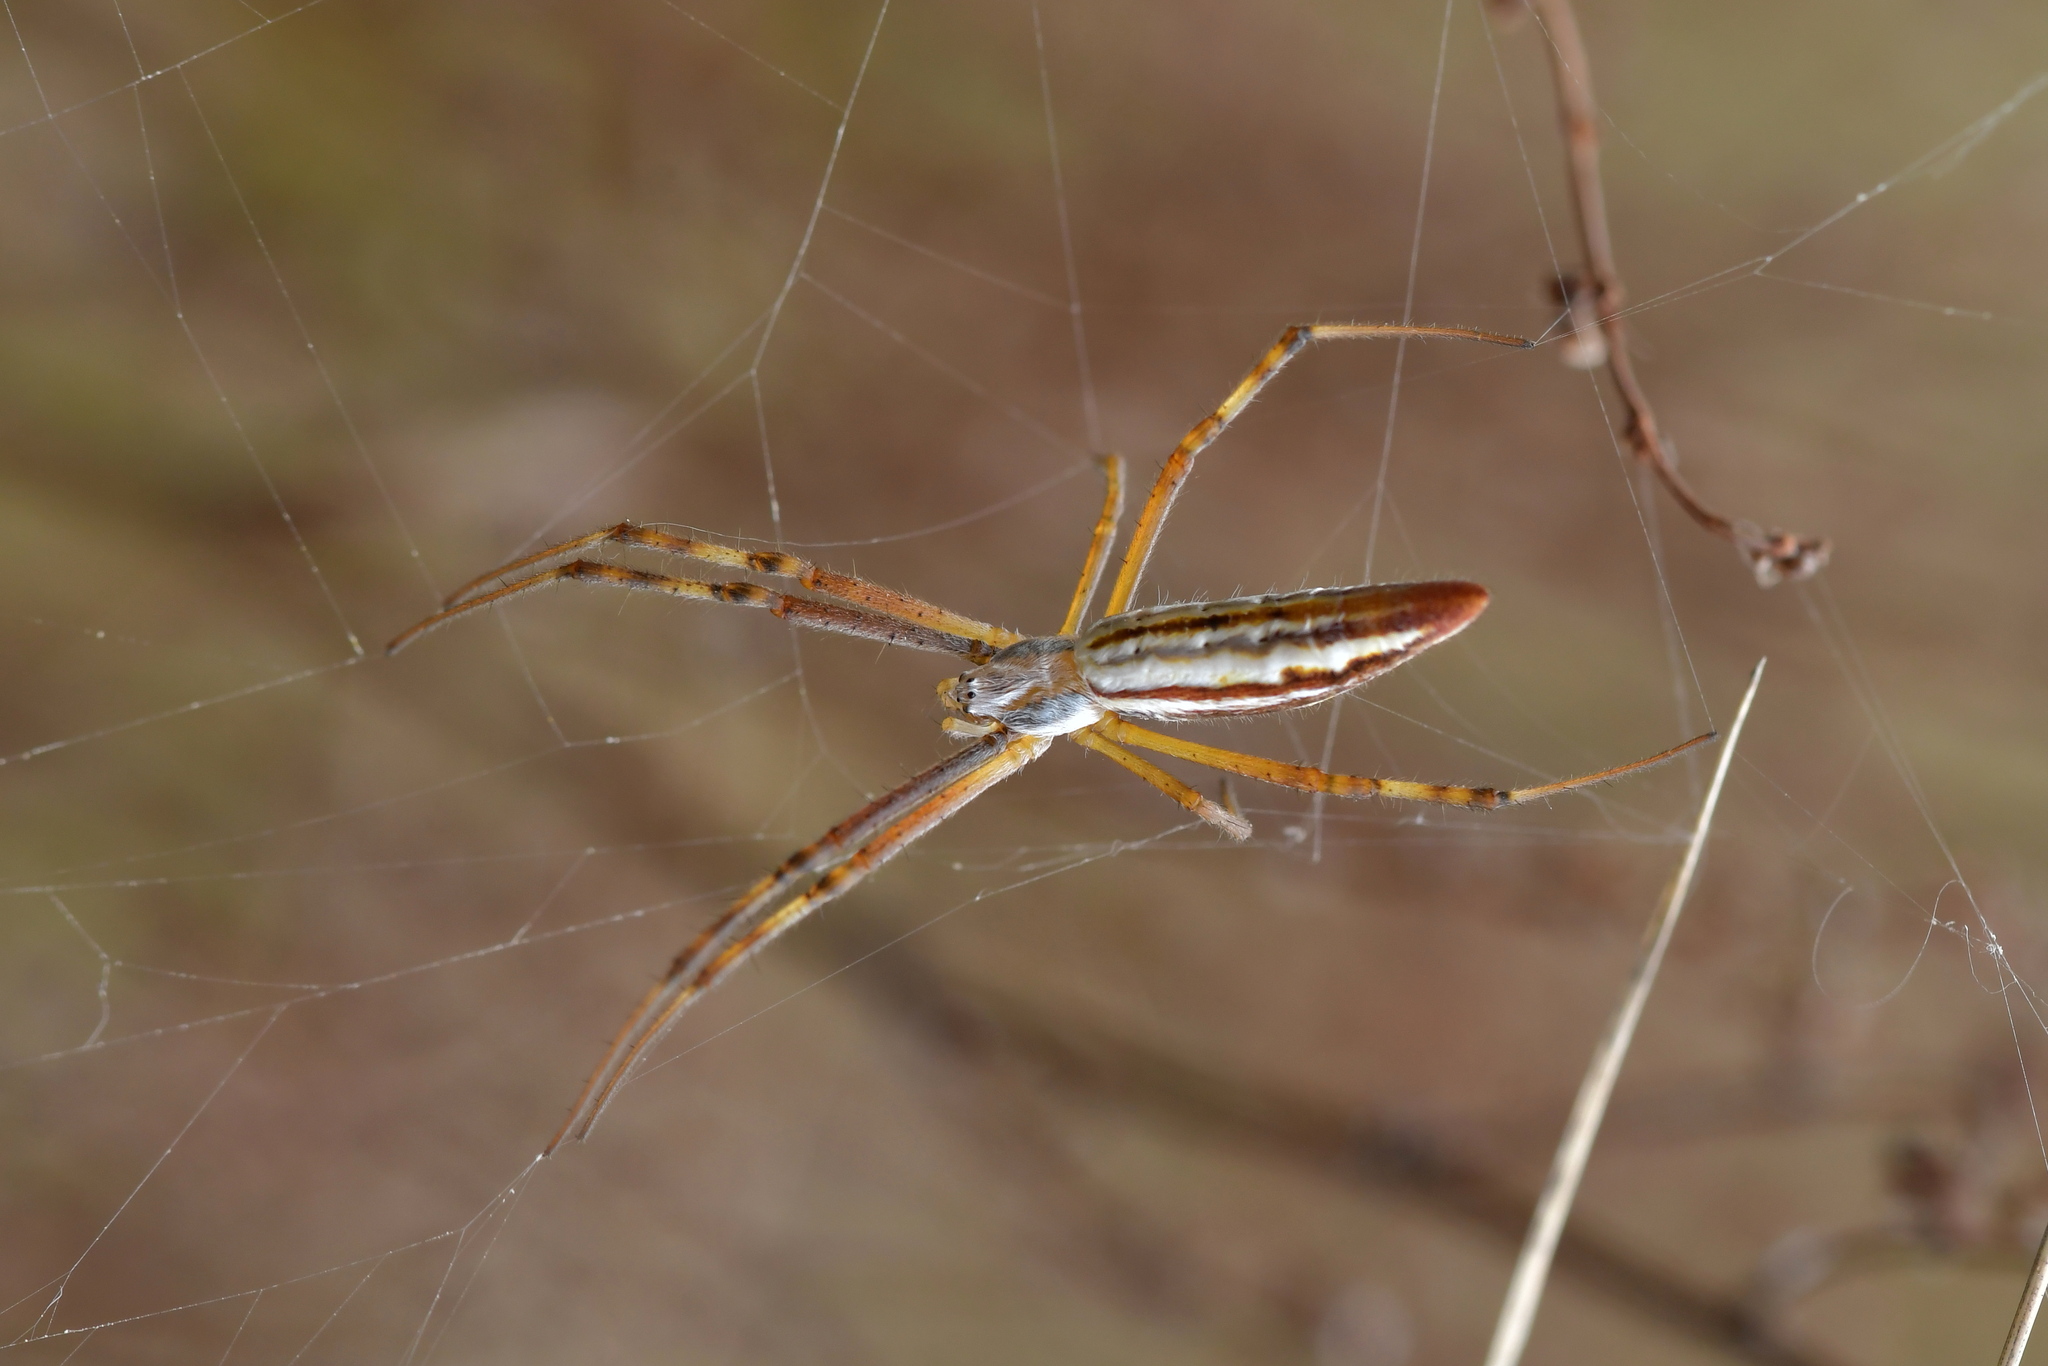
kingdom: Animalia
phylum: Arthropoda
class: Arachnida
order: Araneae
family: Araneidae
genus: Argiope
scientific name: Argiope protensa
